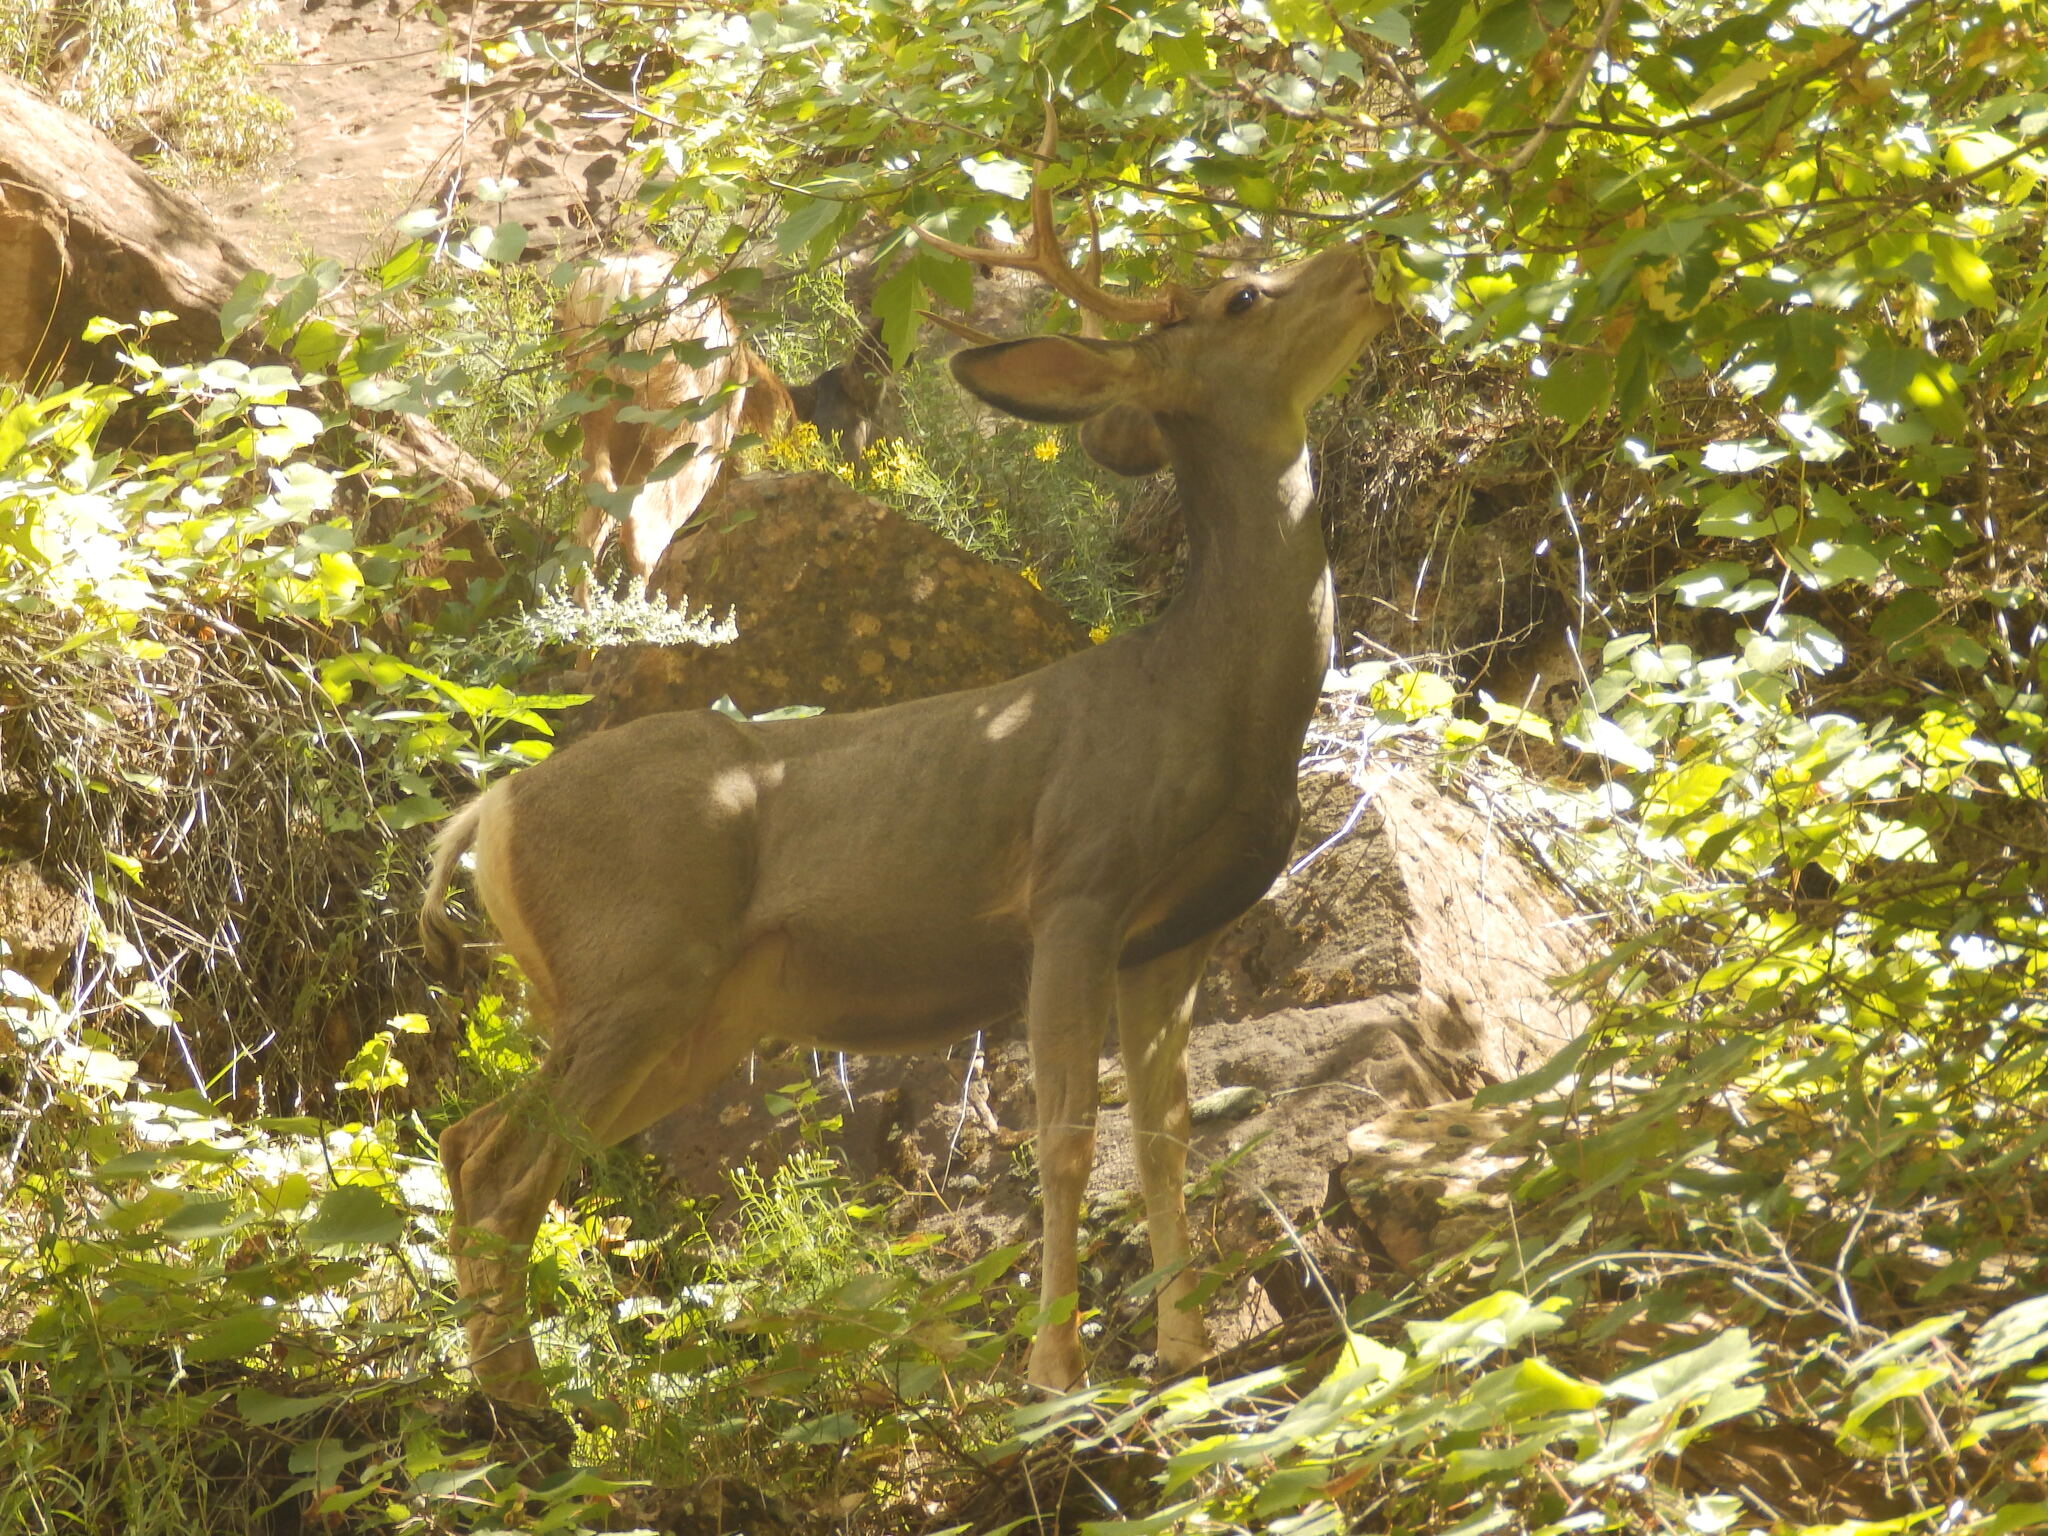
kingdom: Animalia
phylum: Chordata
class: Mammalia
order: Artiodactyla
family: Cervidae
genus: Odocoileus
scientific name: Odocoileus hemionus
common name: Mule deer
